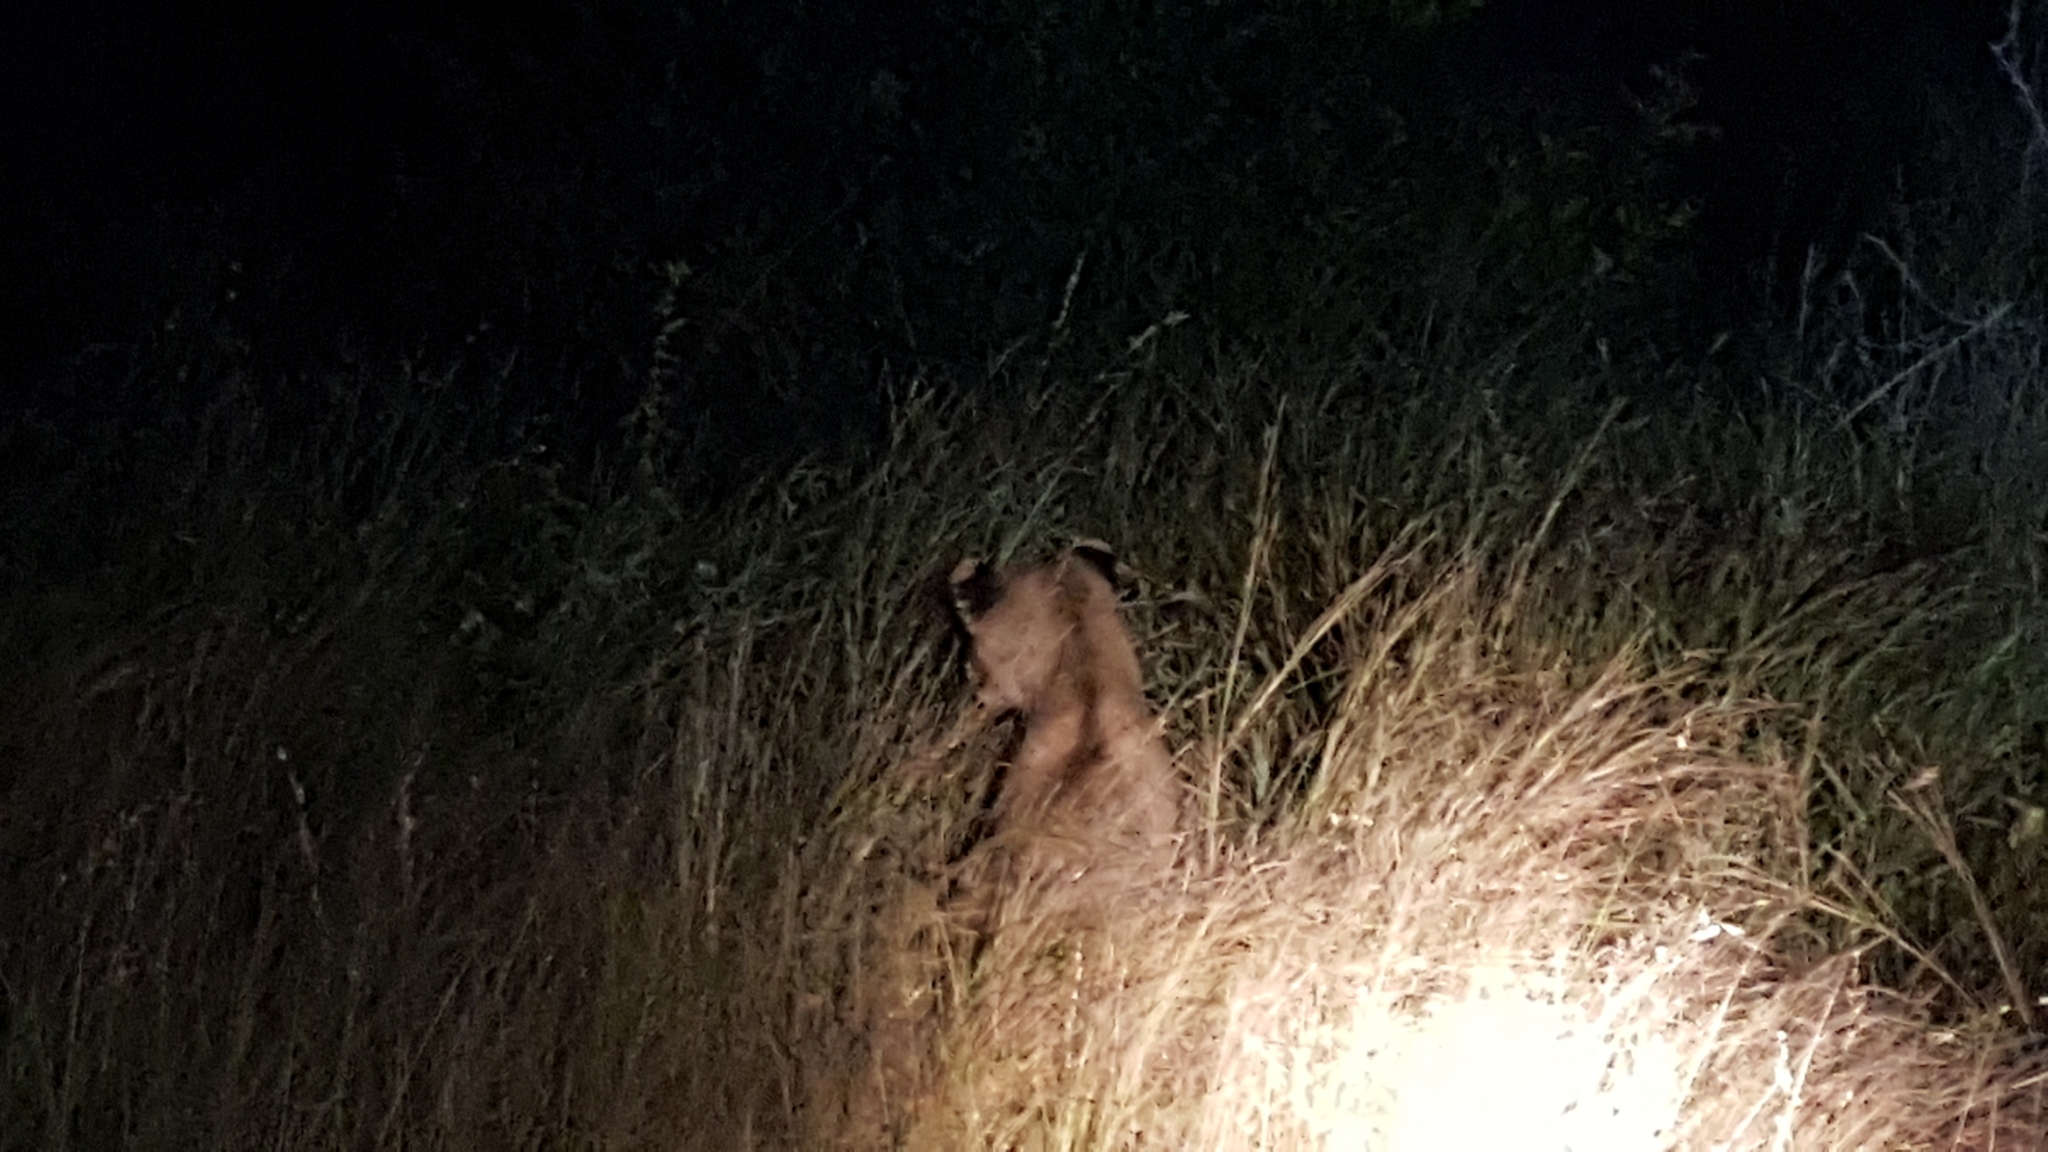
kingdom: Animalia
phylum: Chordata
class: Mammalia
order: Carnivora
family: Felidae
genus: Panthera
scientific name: Panthera leo
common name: Lion
